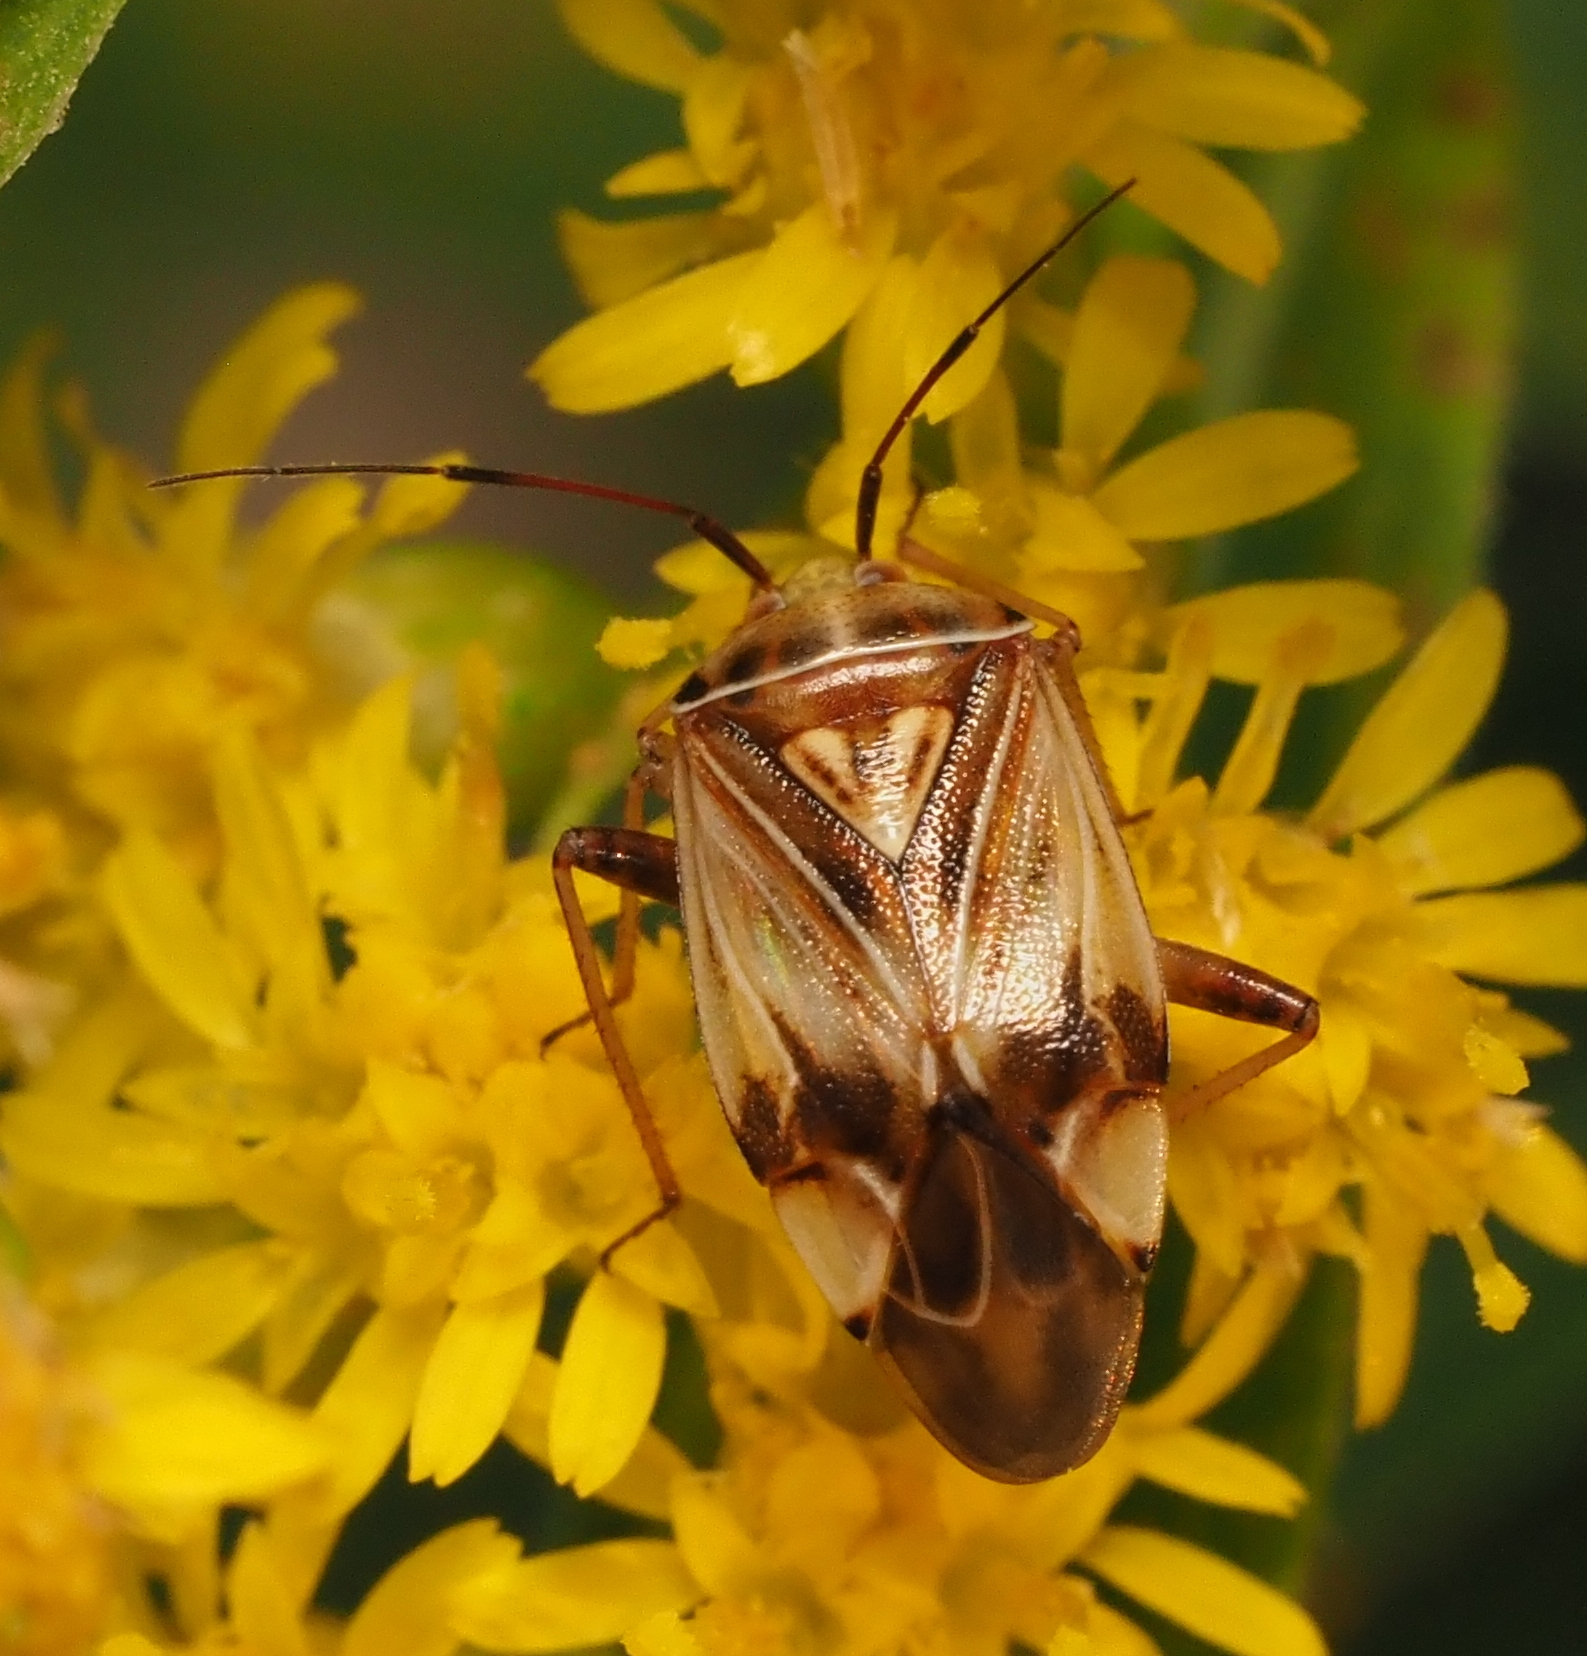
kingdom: Animalia
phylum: Arthropoda
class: Insecta
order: Hemiptera
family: Miridae
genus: Lygus
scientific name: Lygus lineolaris
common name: North american tarnished plant bug
